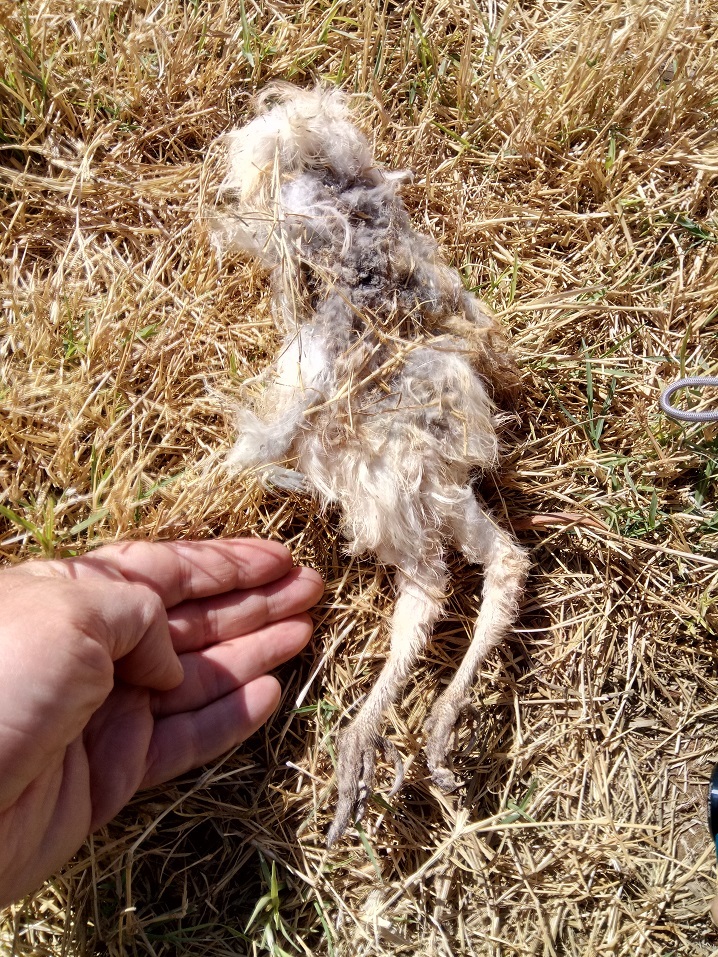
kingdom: Animalia
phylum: Chordata
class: Aves
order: Strigiformes
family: Tytonidae
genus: Tyto
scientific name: Tyto alba
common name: Barn owl
